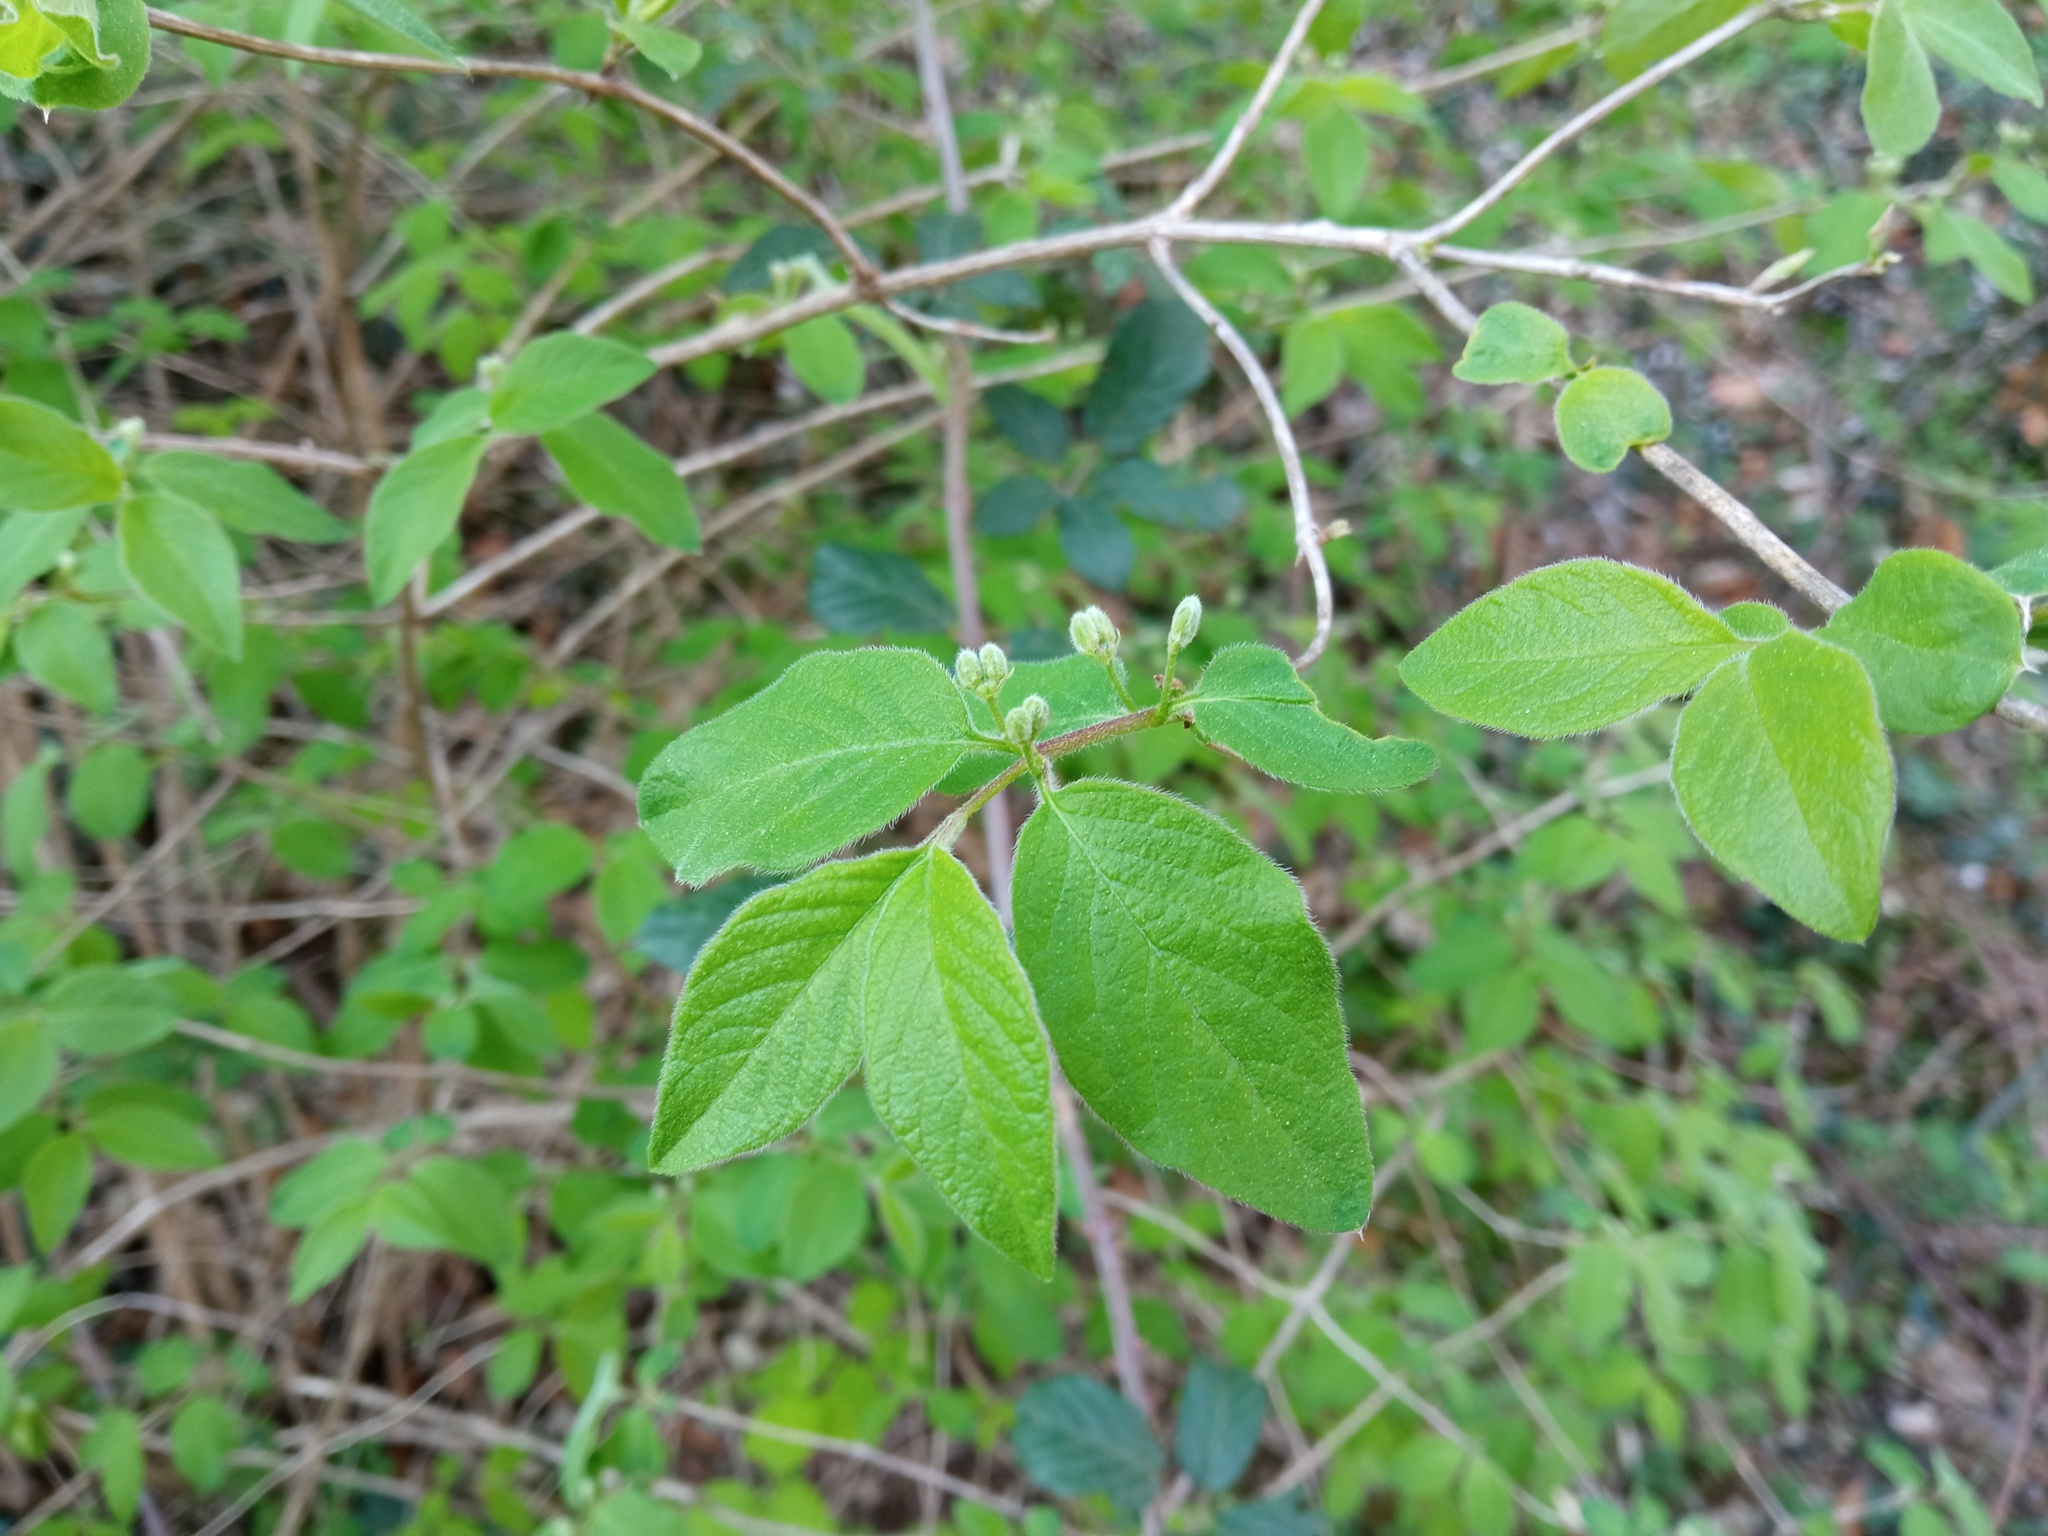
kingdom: Plantae
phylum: Tracheophyta
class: Magnoliopsida
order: Dipsacales
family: Caprifoliaceae
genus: Lonicera
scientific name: Lonicera xylosteum
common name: Fly honeysuckle
